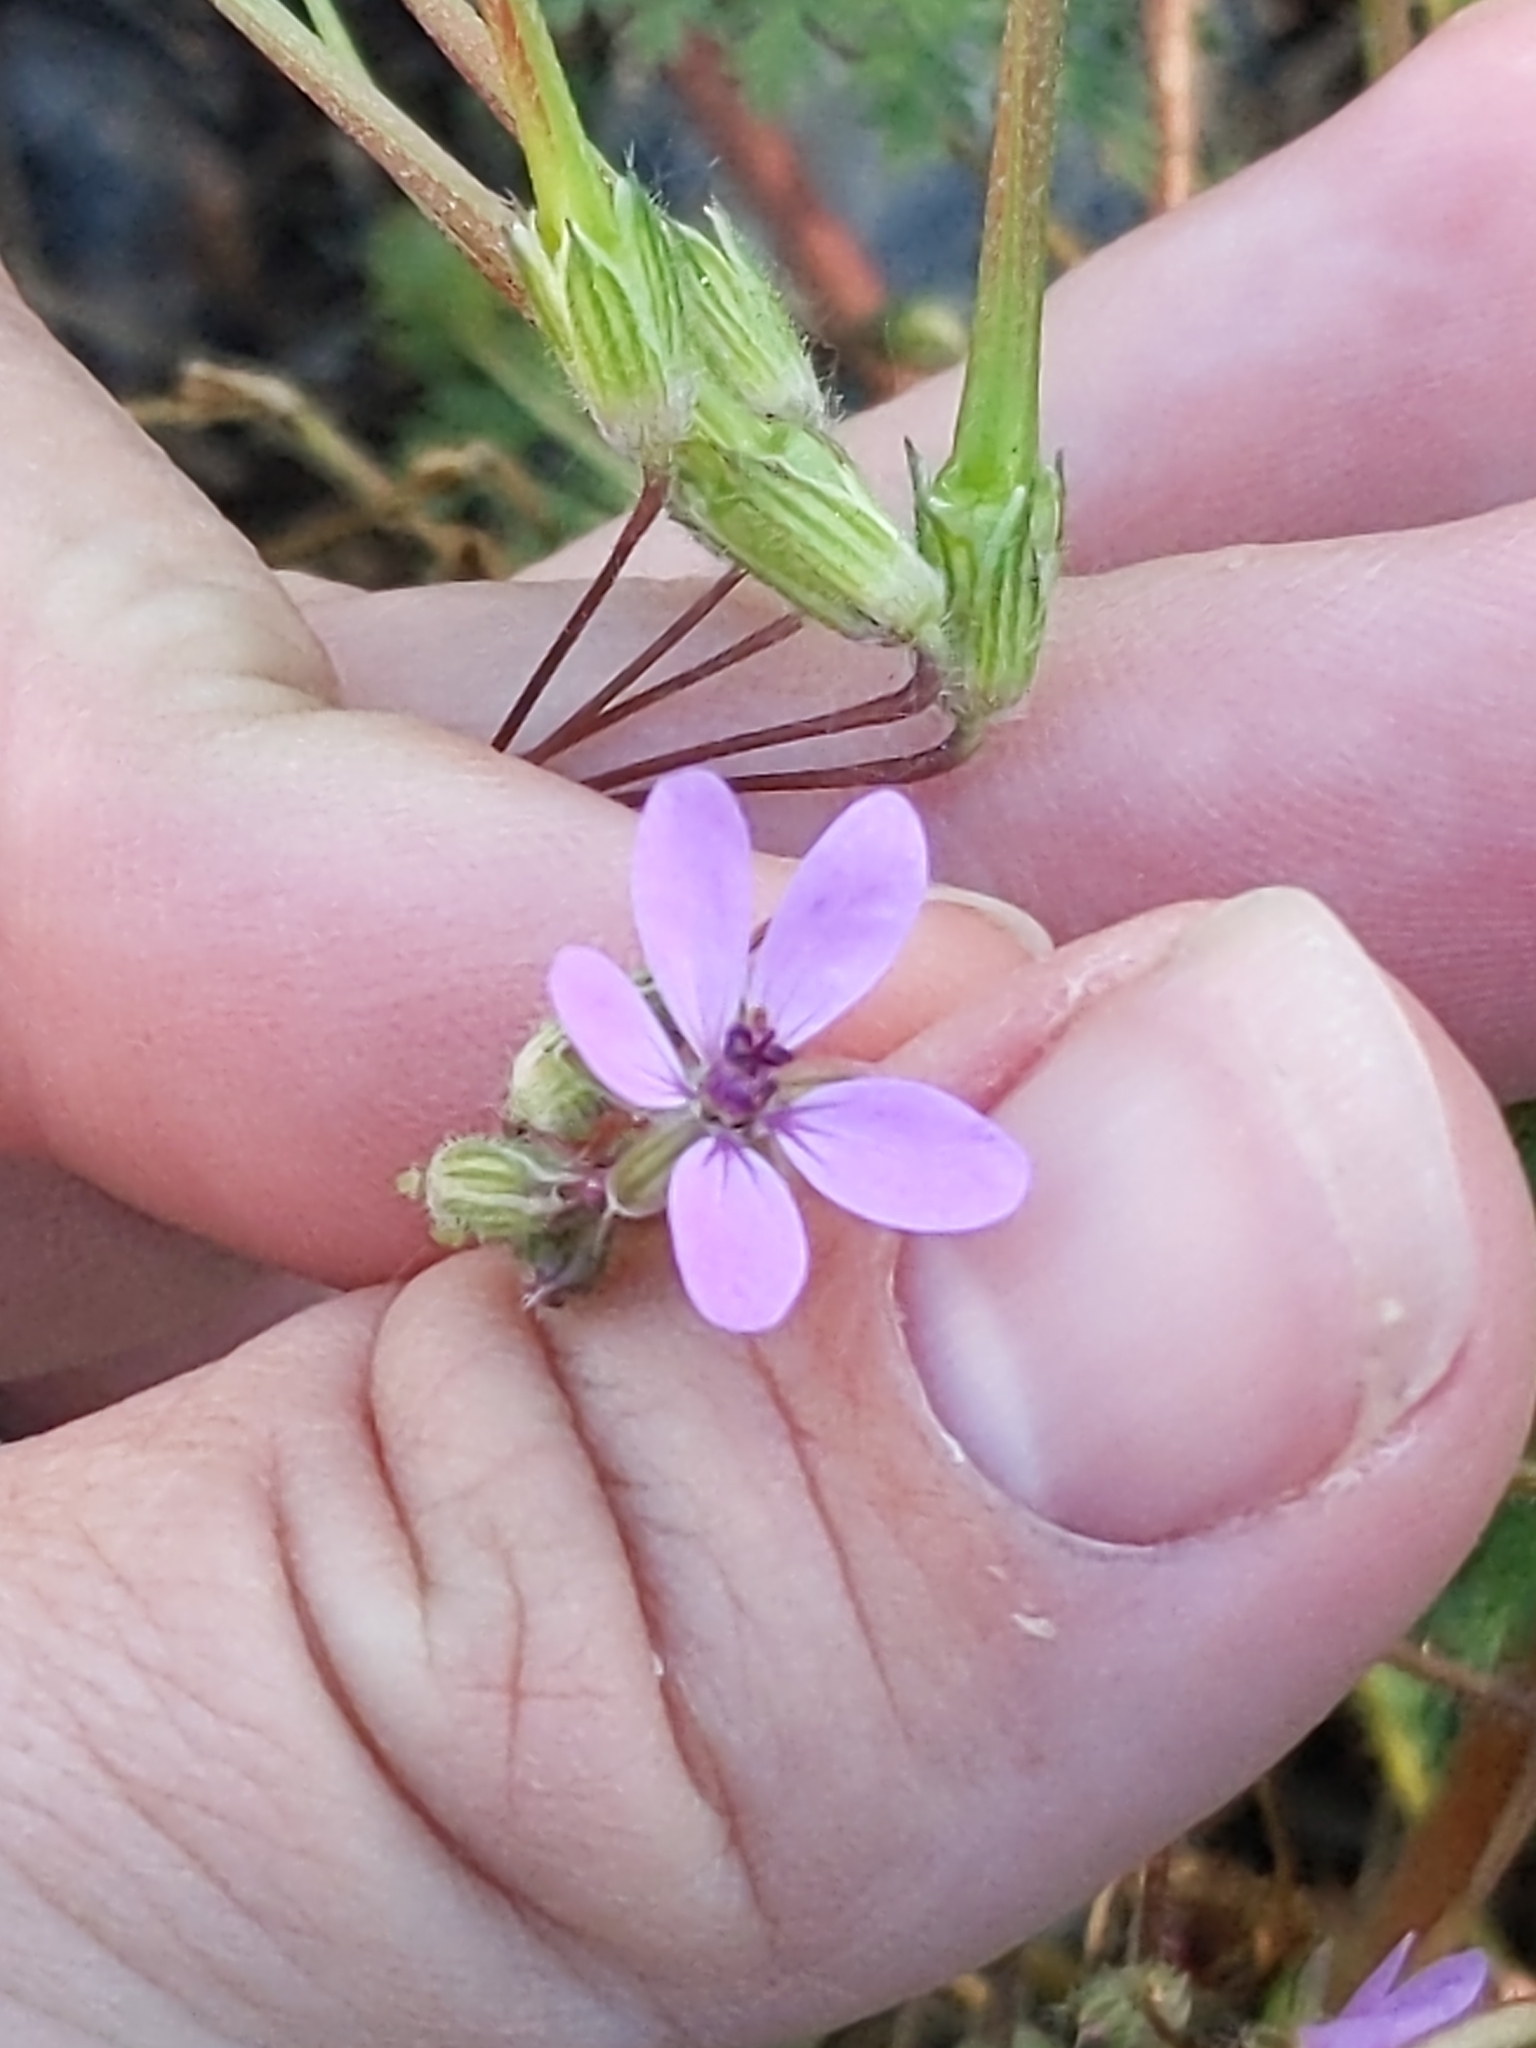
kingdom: Plantae
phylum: Tracheophyta
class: Magnoliopsida
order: Geraniales
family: Geraniaceae
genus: Erodium
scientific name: Erodium cicutarium
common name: Common stork's-bill
